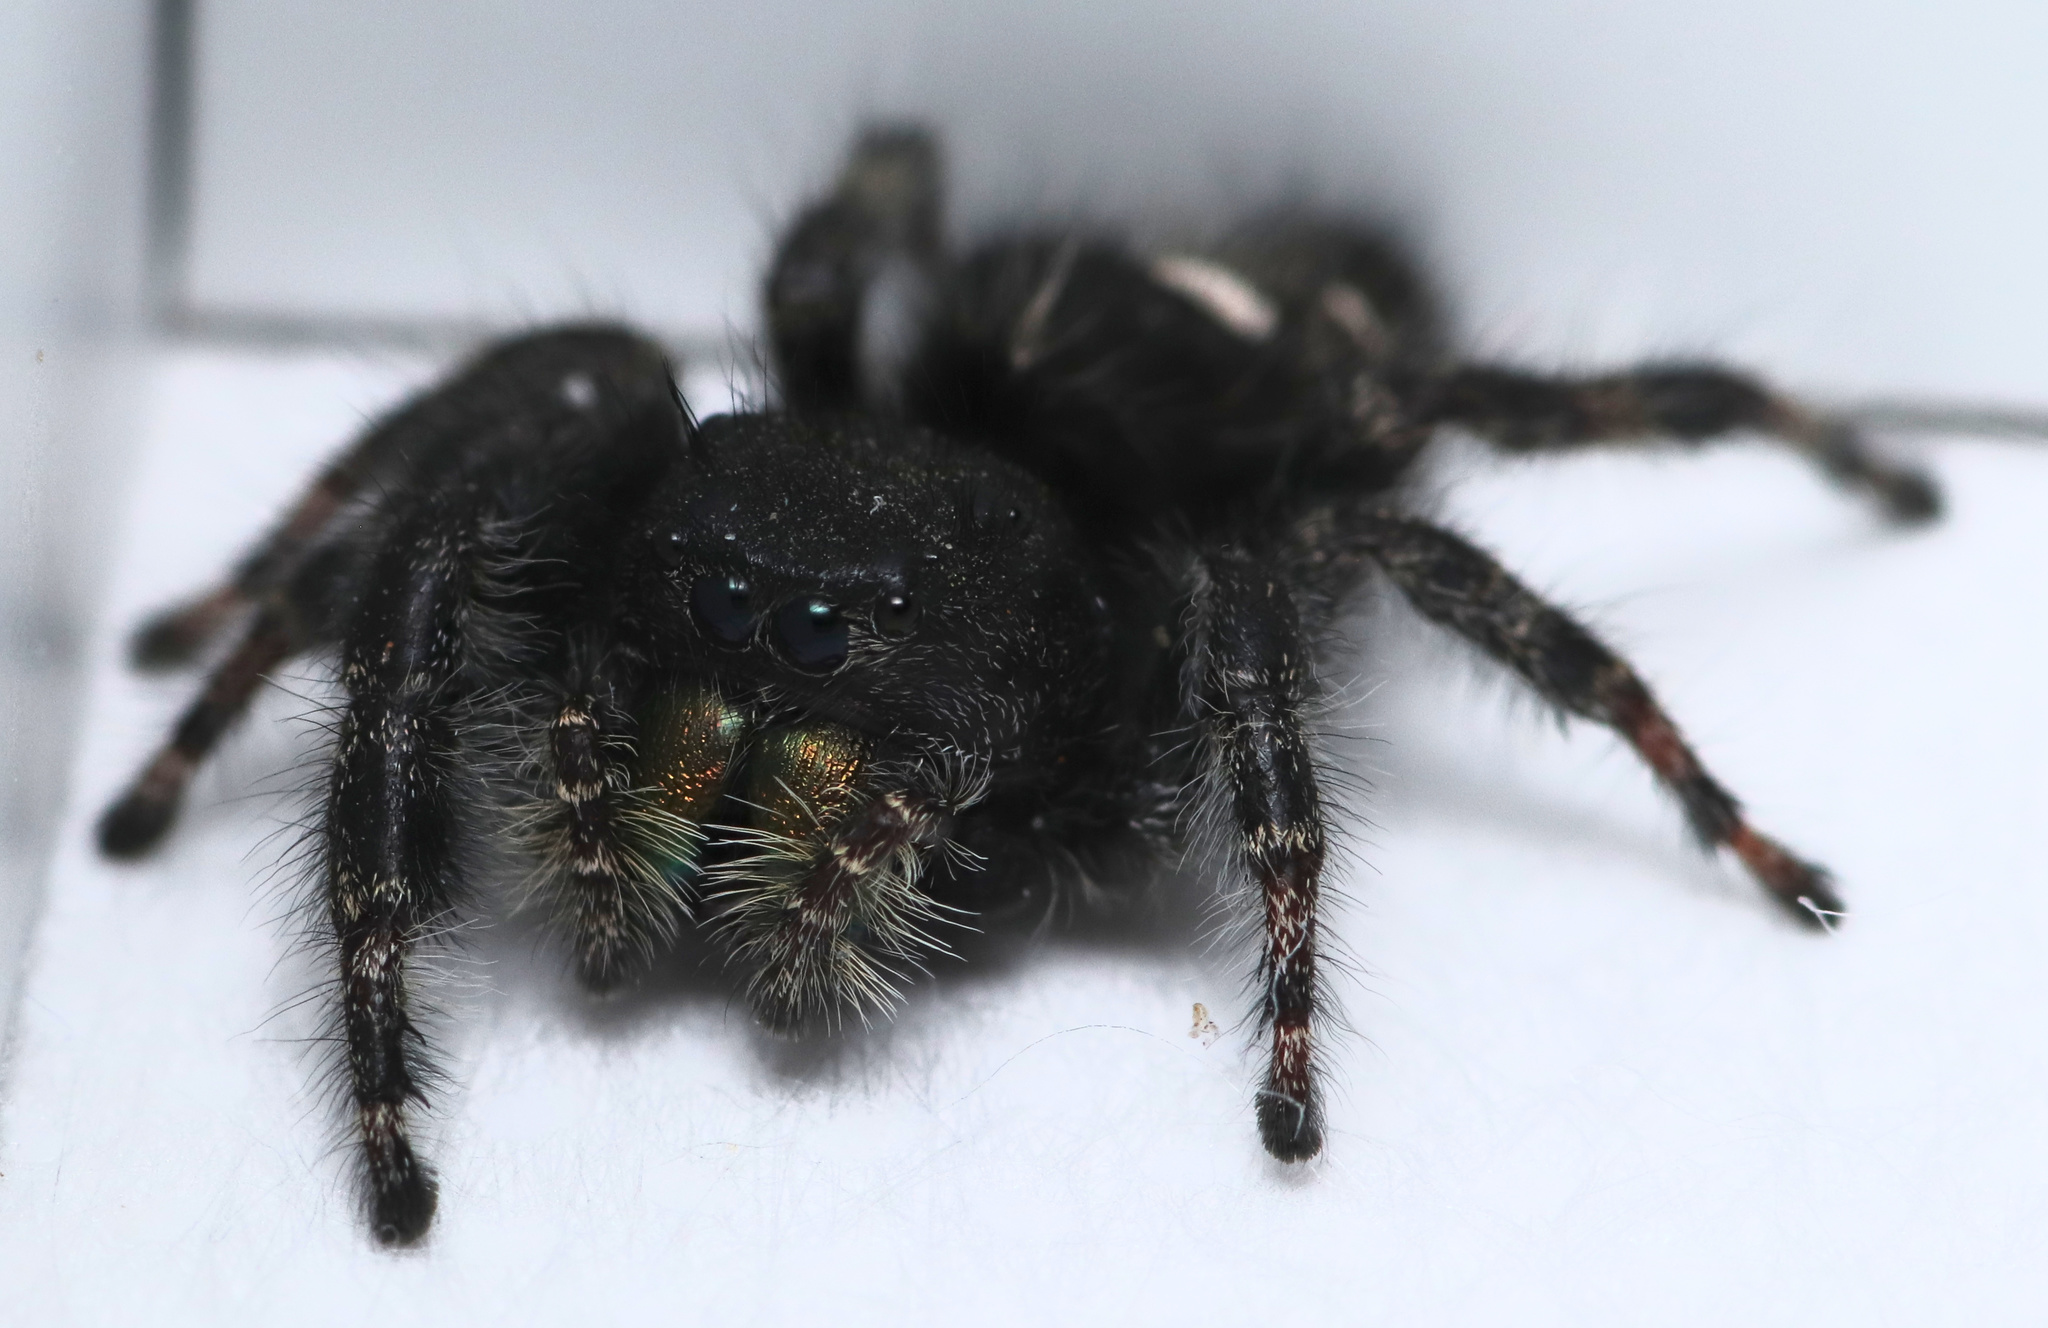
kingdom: Animalia
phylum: Arthropoda
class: Arachnida
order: Araneae
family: Salticidae
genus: Phidippus
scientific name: Phidippus audax
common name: Bold jumper
